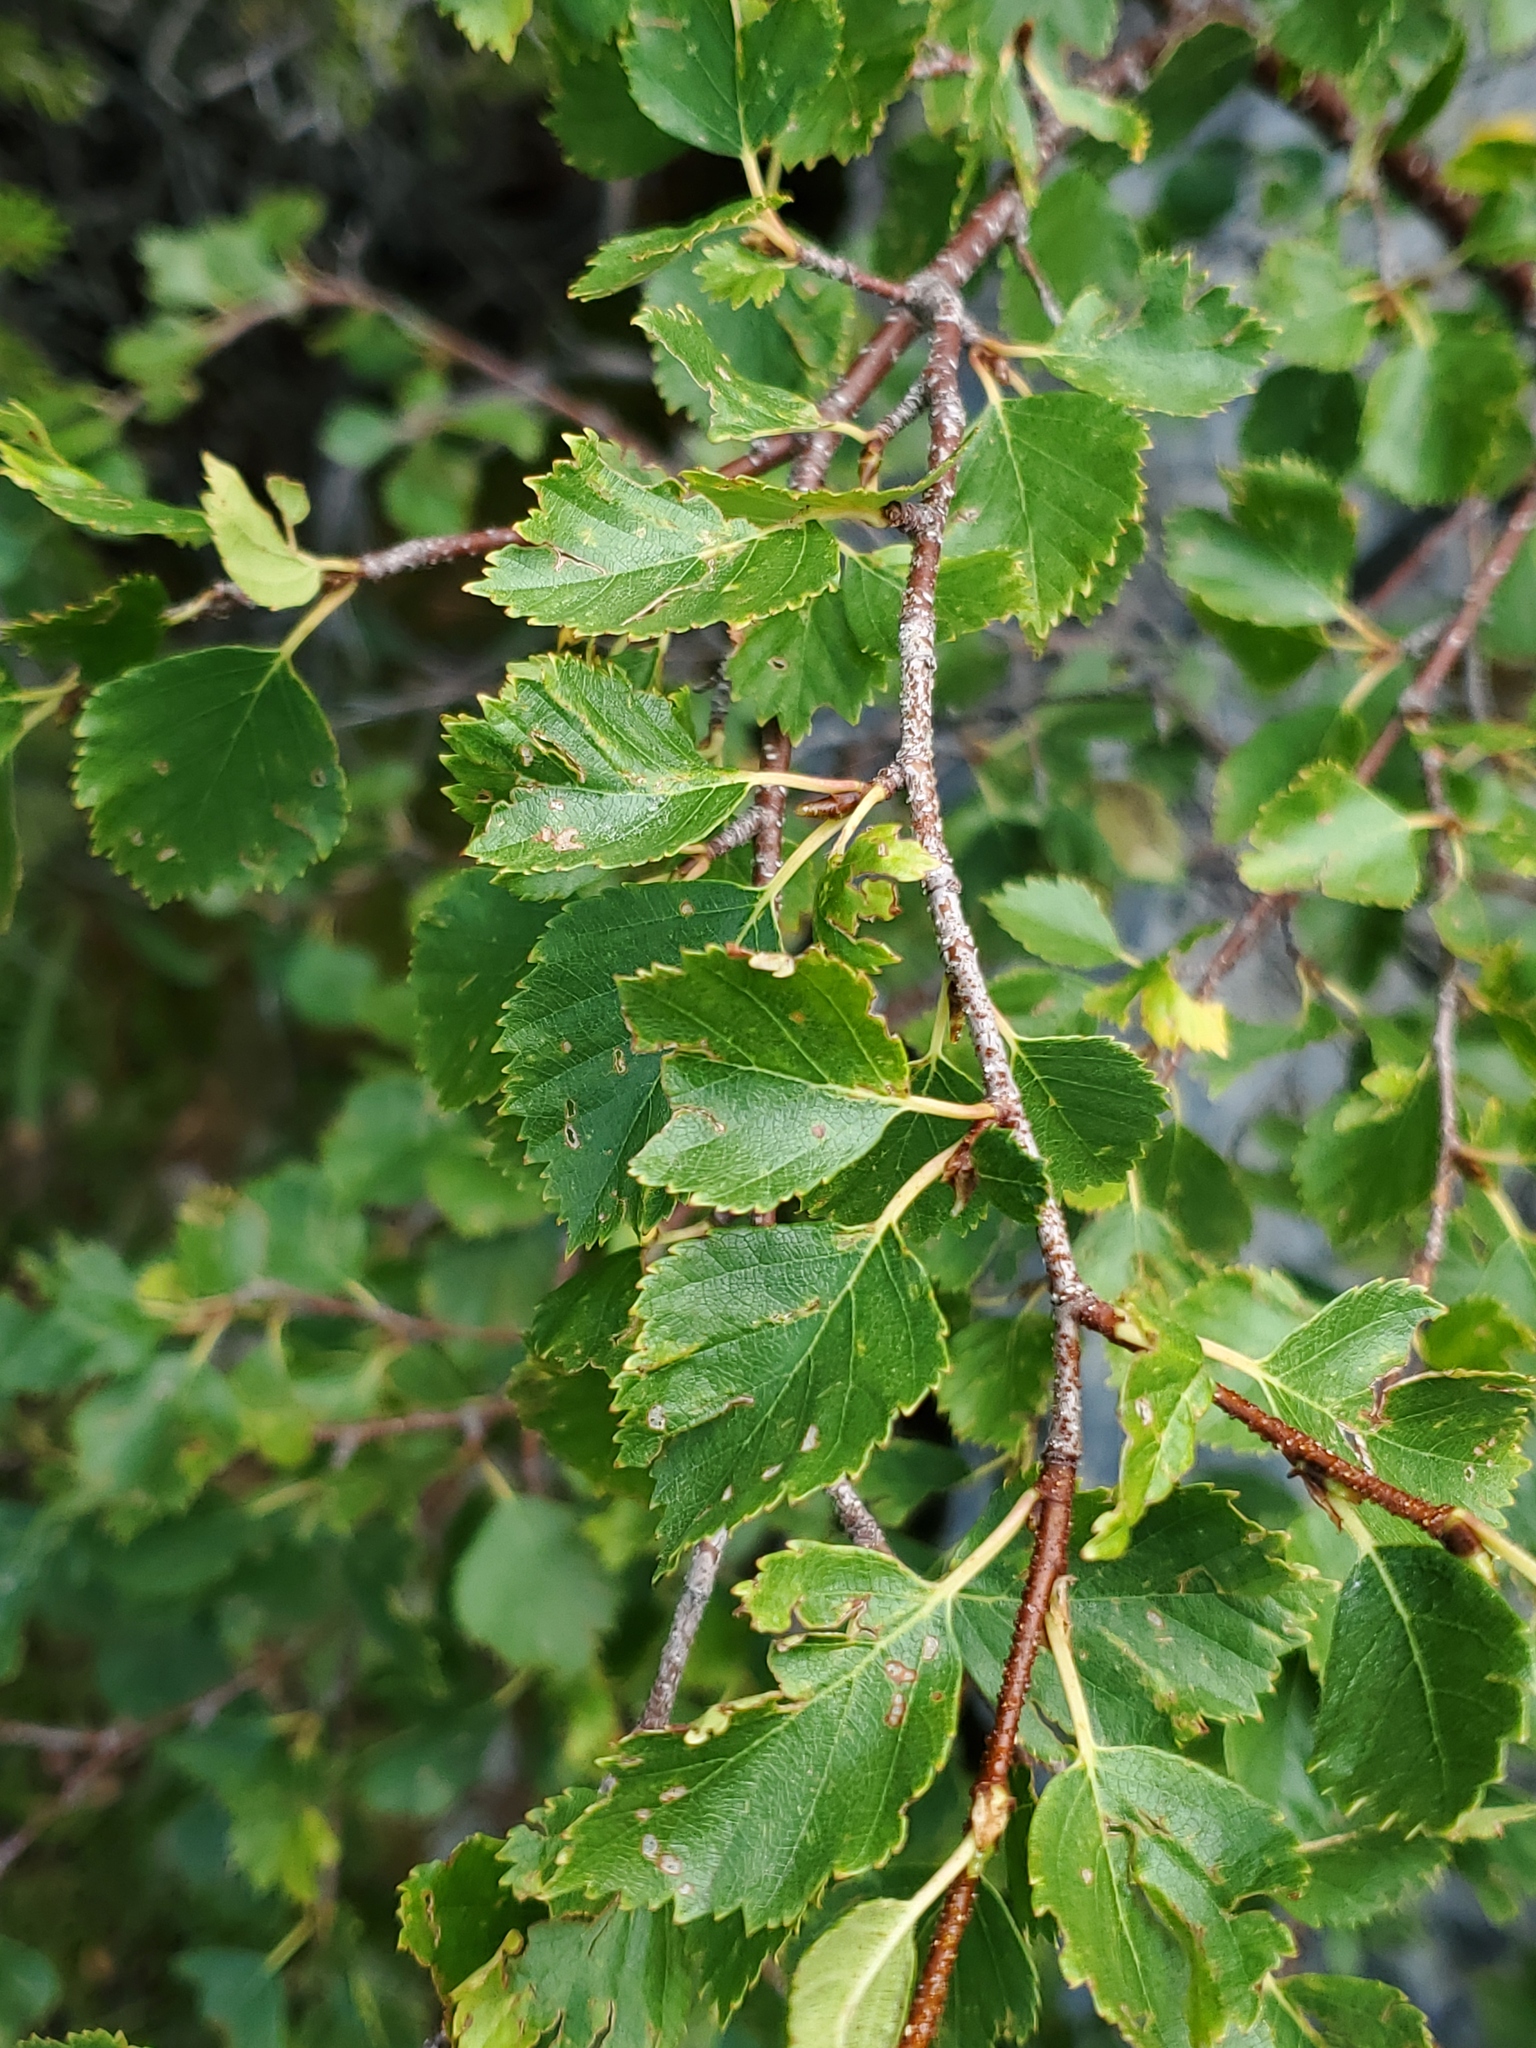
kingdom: Plantae
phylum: Tracheophyta
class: Magnoliopsida
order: Fagales
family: Betulaceae
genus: Betula
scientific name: Betula occidentalis
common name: River birch
